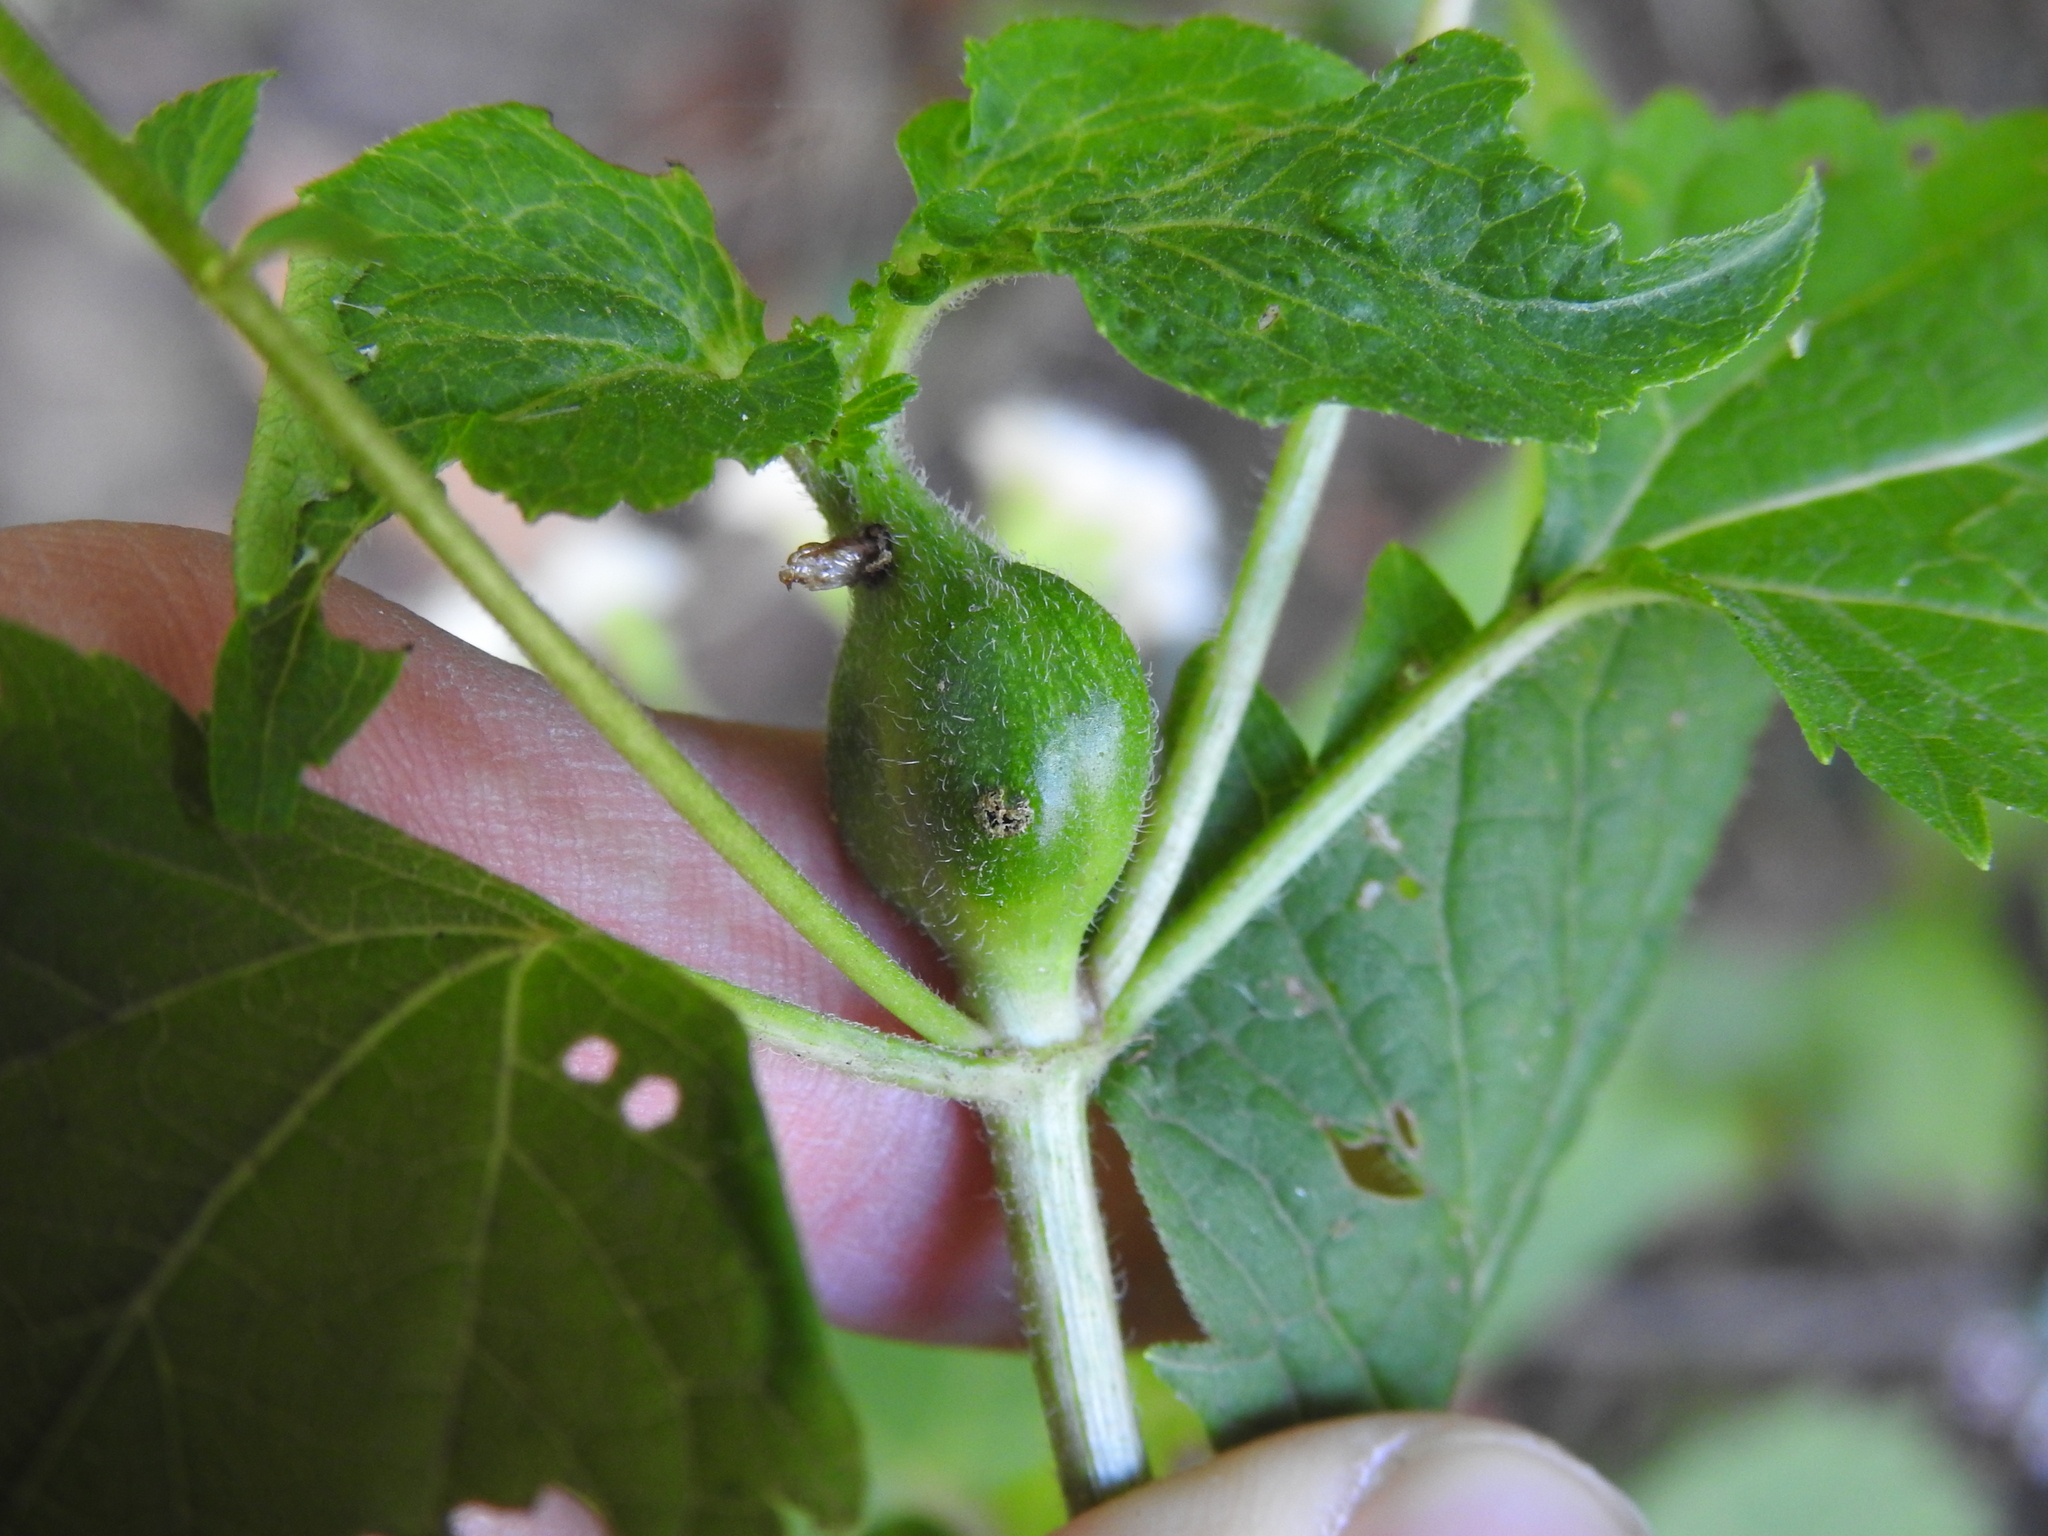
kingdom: Animalia
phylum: Arthropoda
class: Insecta
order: Diptera
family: Cecidomyiidae
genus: Asphondylia
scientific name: Asphondylia eupatorii
